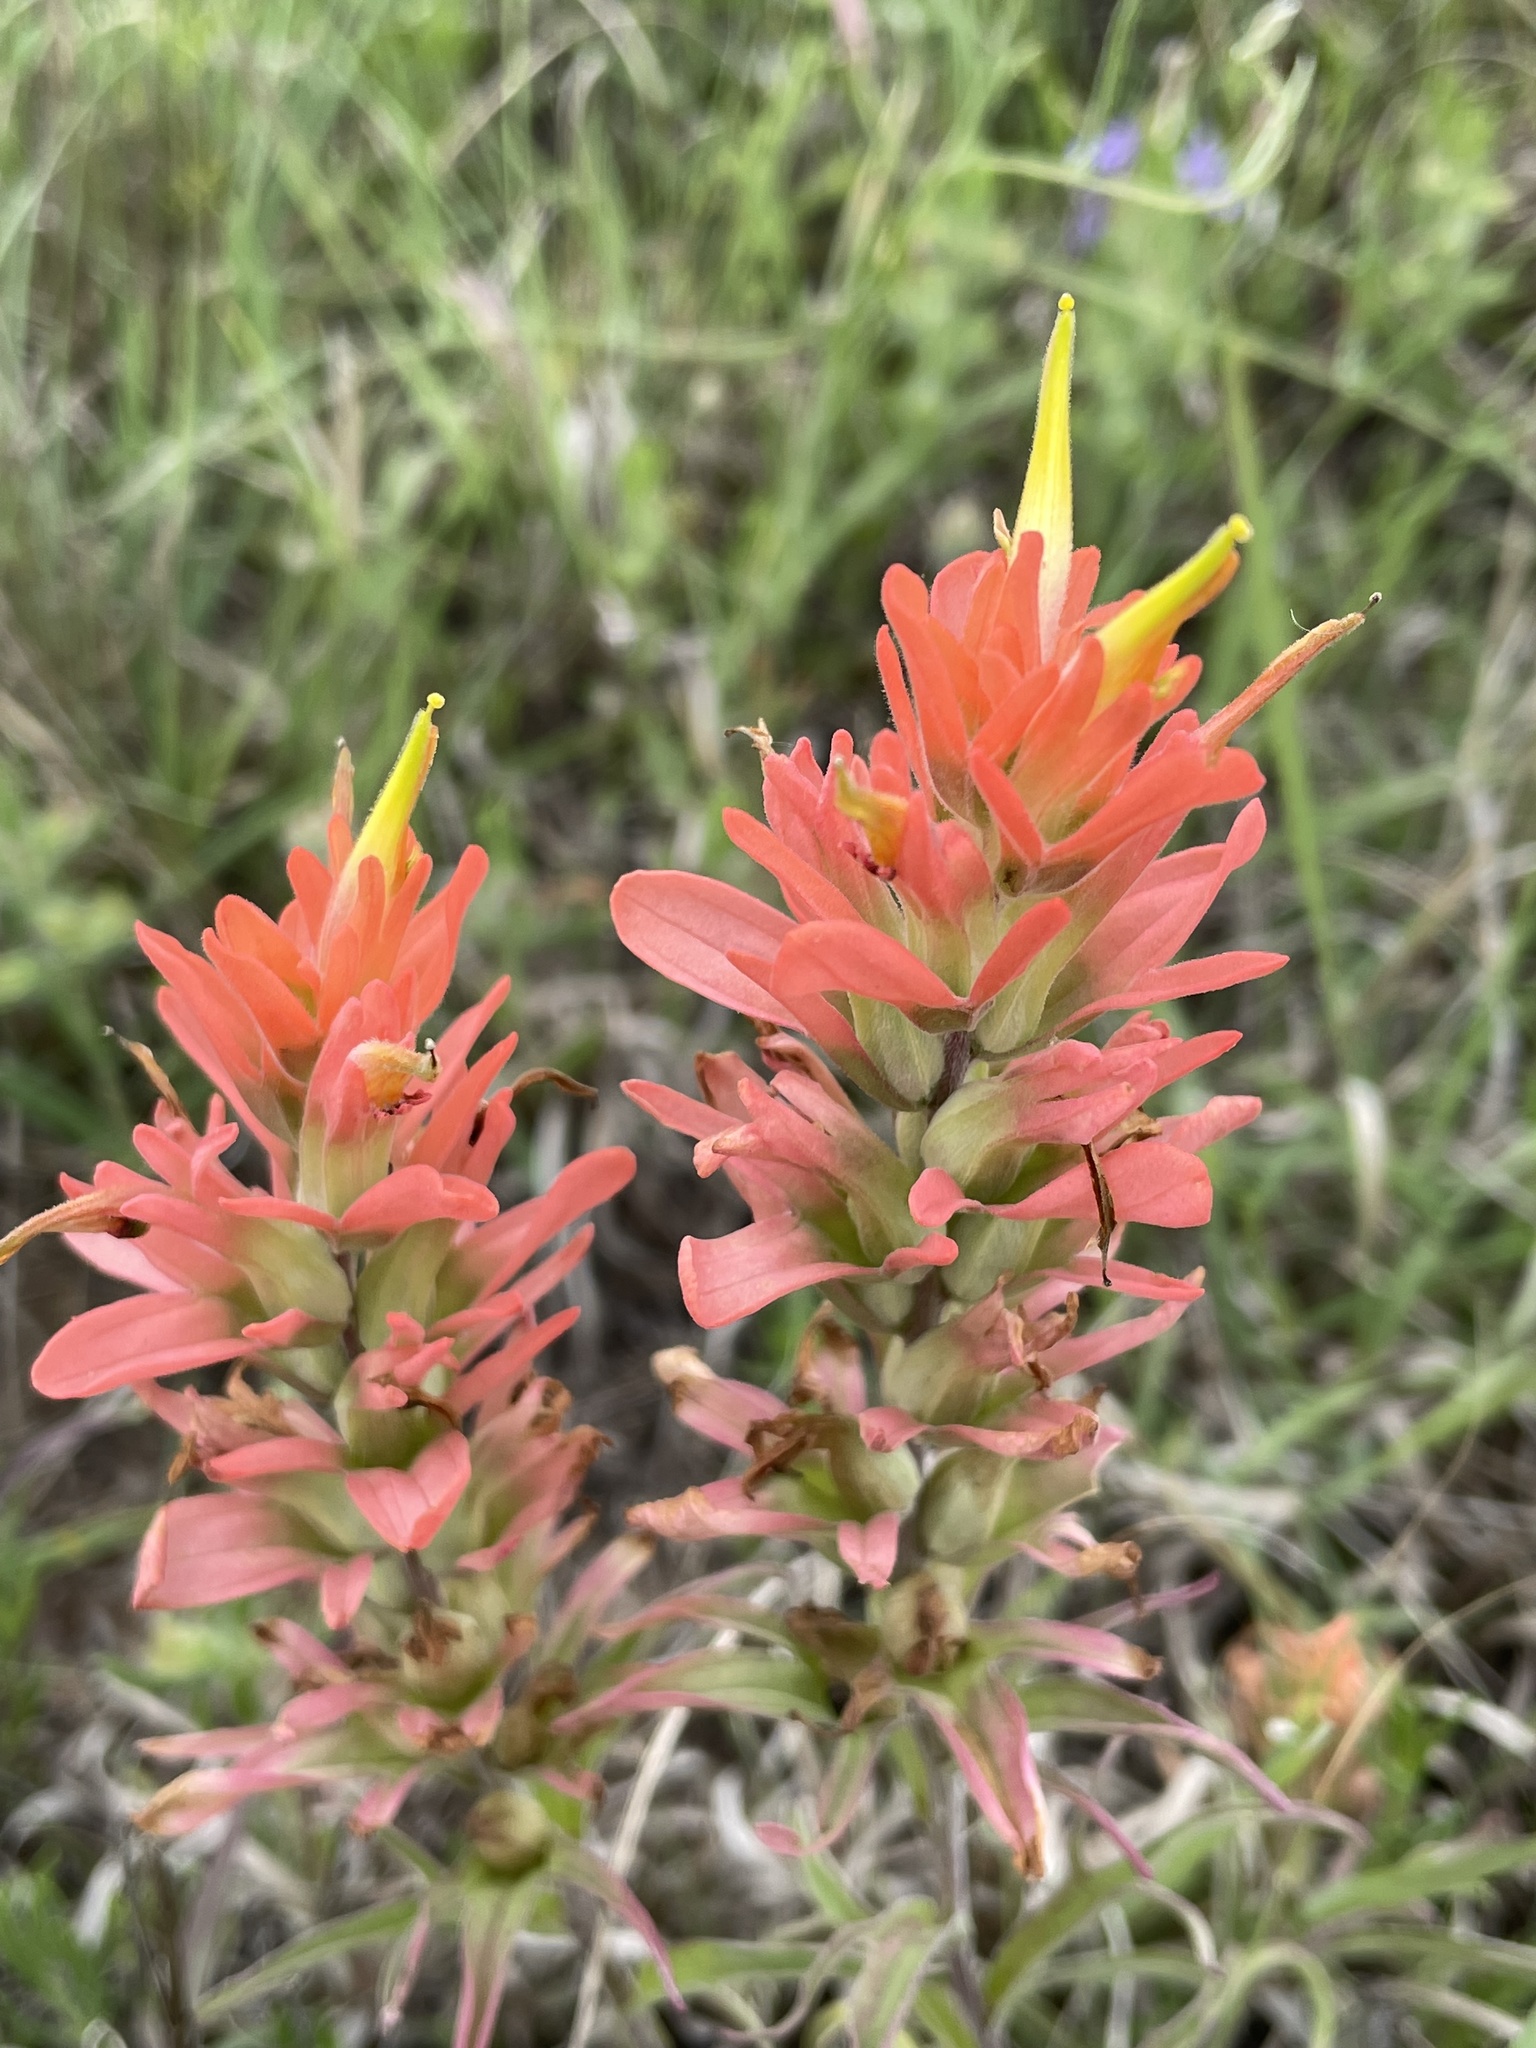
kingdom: Plantae
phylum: Tracheophyta
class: Magnoliopsida
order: Lamiales
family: Orobanchaceae
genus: Castilleja
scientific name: Castilleja lindheimeri
